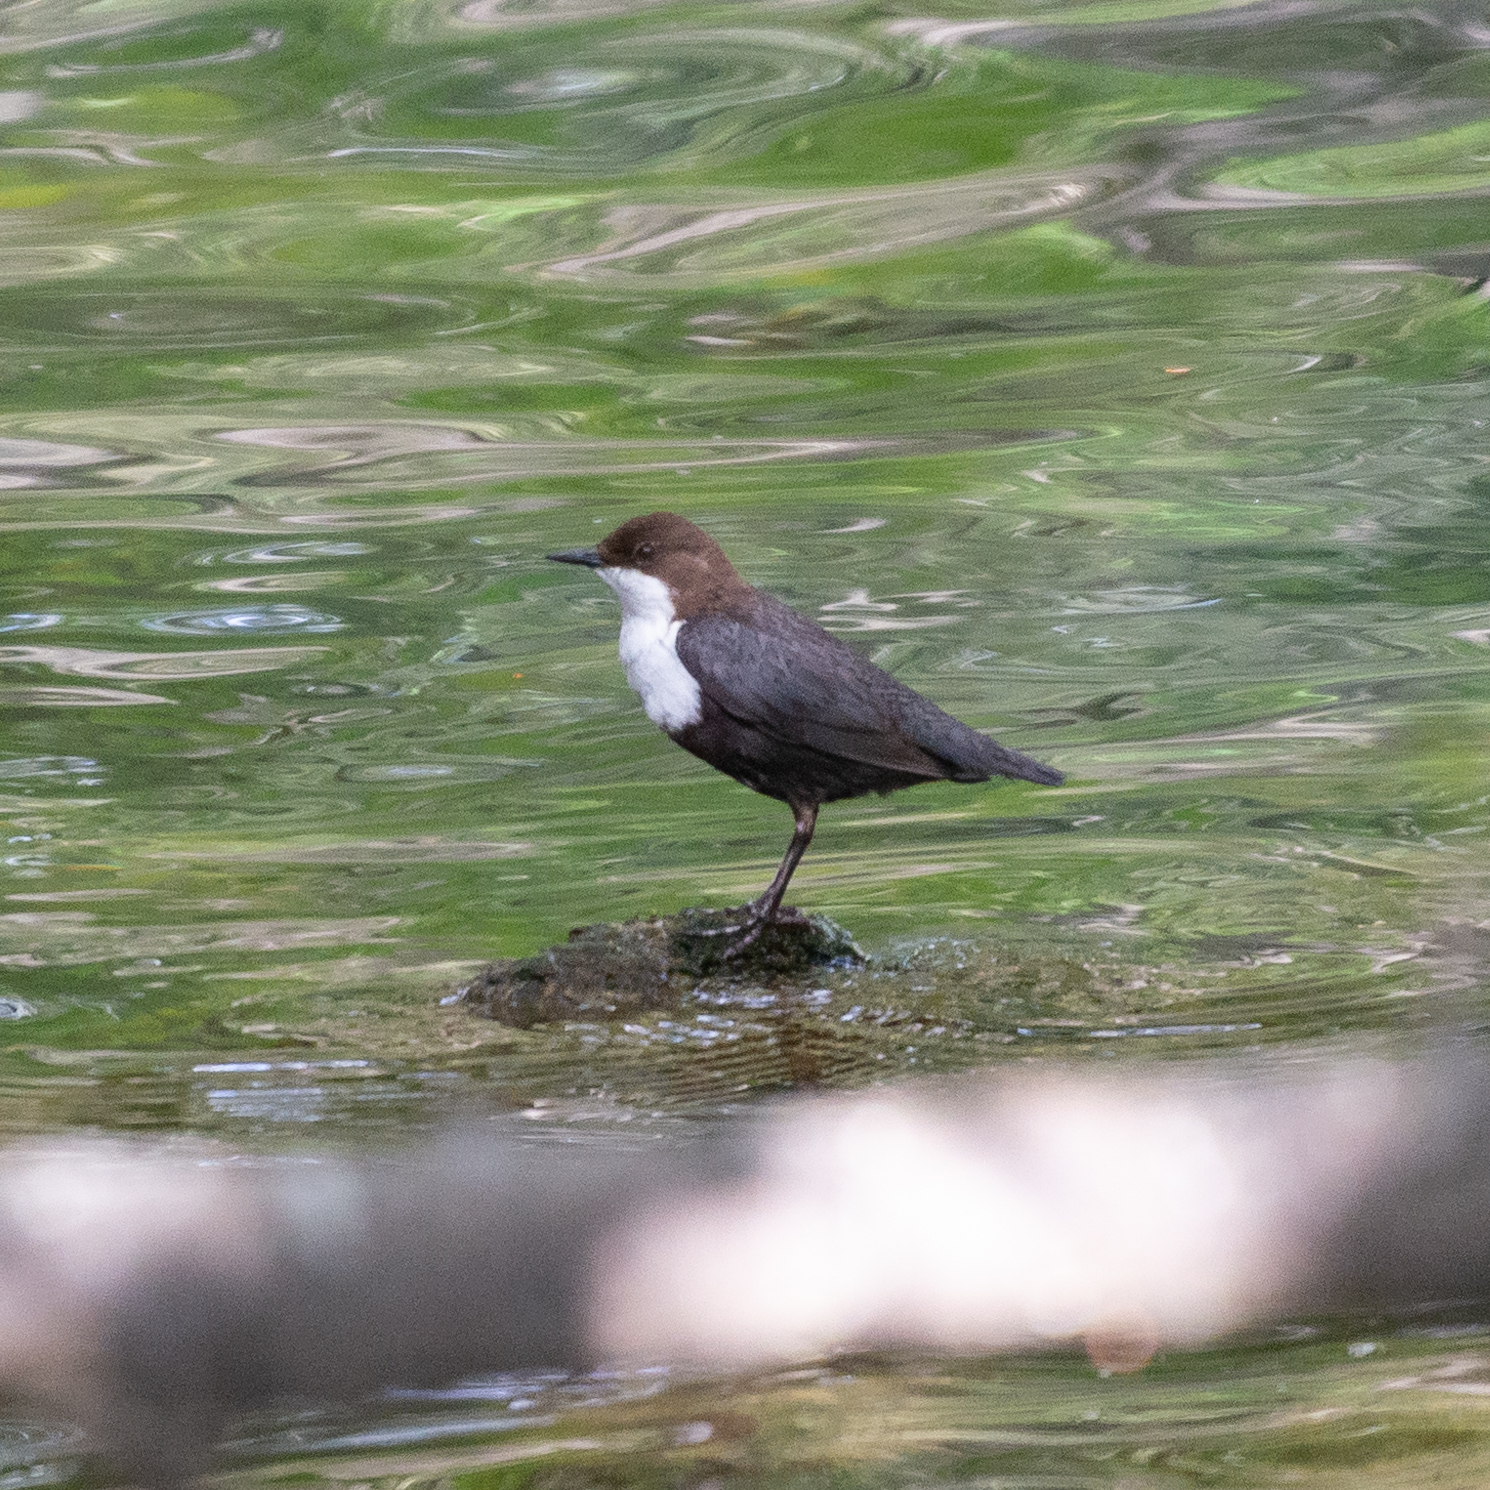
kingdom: Animalia
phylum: Chordata
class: Aves
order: Passeriformes
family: Cinclidae
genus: Cinclus
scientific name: Cinclus cinclus
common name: White-throated dipper
